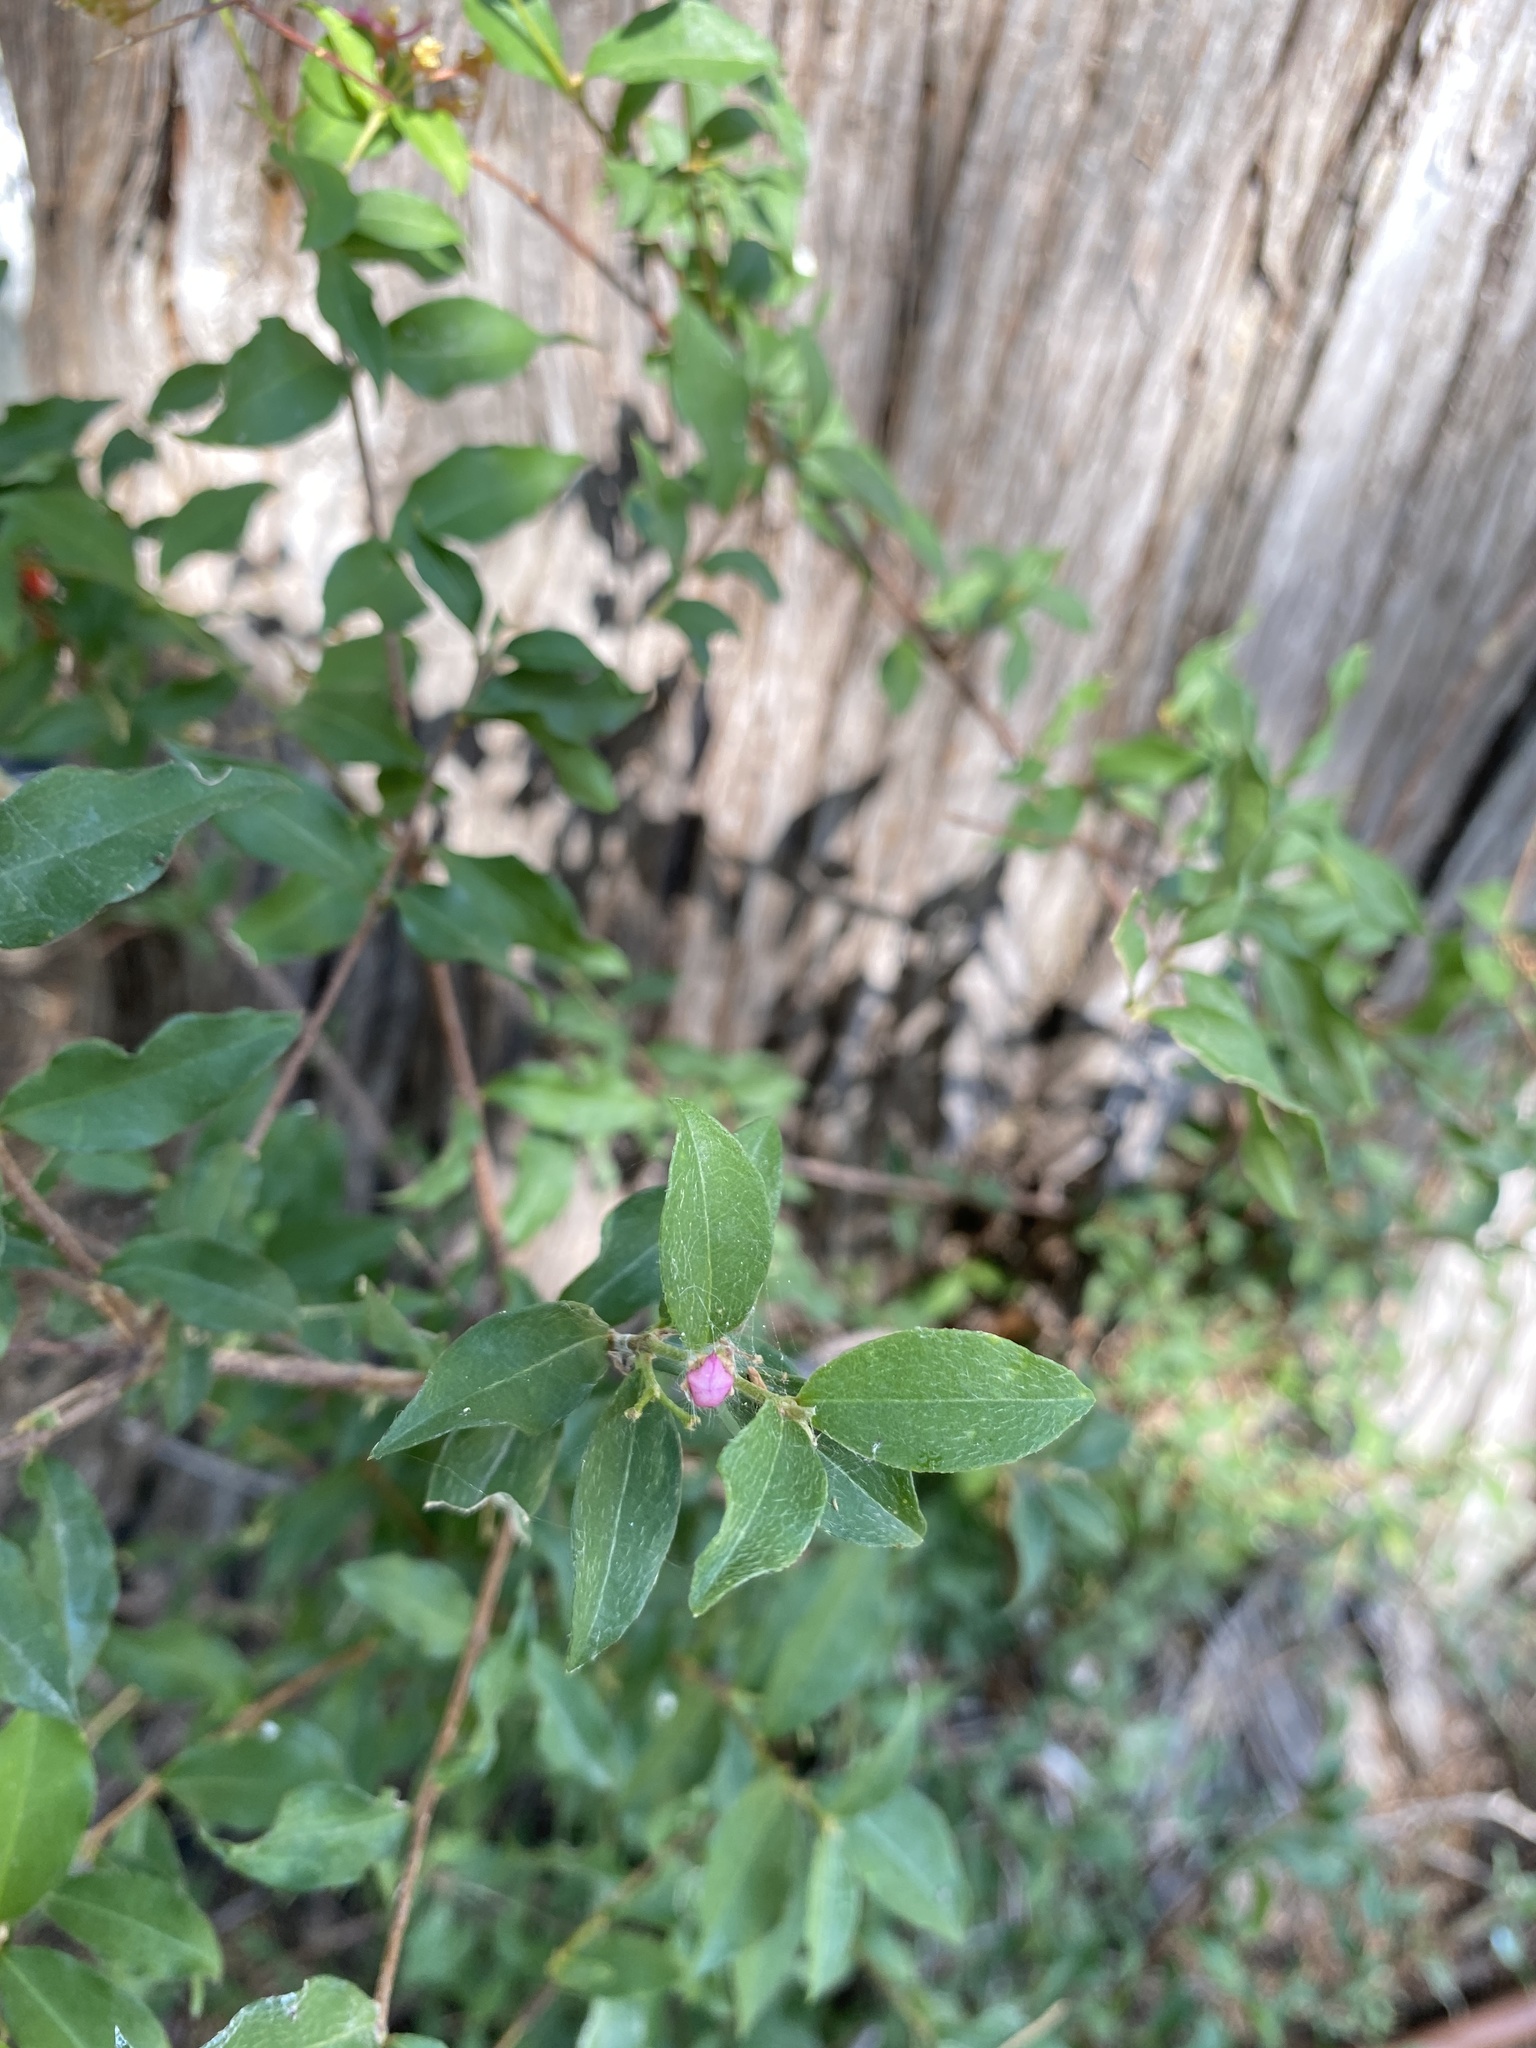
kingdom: Plantae
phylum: Tracheophyta
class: Magnoliopsida
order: Malpighiales
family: Malpighiaceae
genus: Malpighia
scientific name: Malpighia glabra
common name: Barbados cherry
